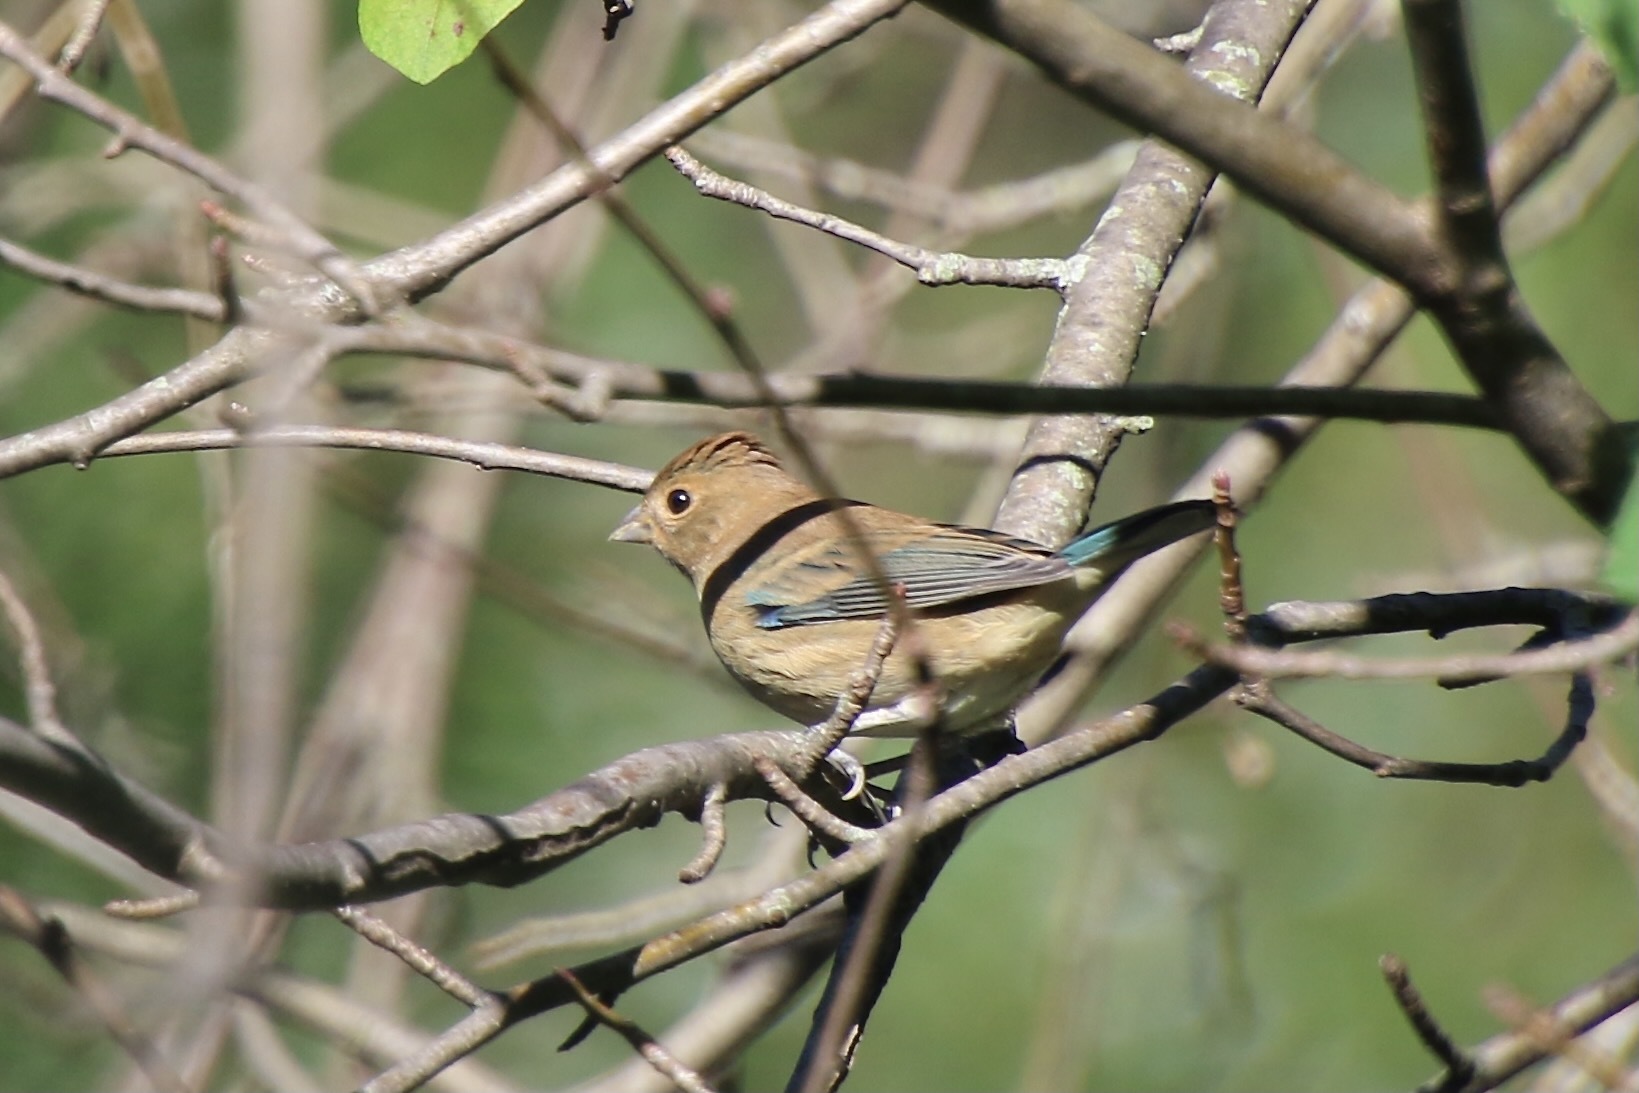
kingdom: Animalia
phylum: Chordata
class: Aves
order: Passeriformes
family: Cardinalidae
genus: Passerina
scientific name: Passerina cyanea
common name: Indigo bunting
